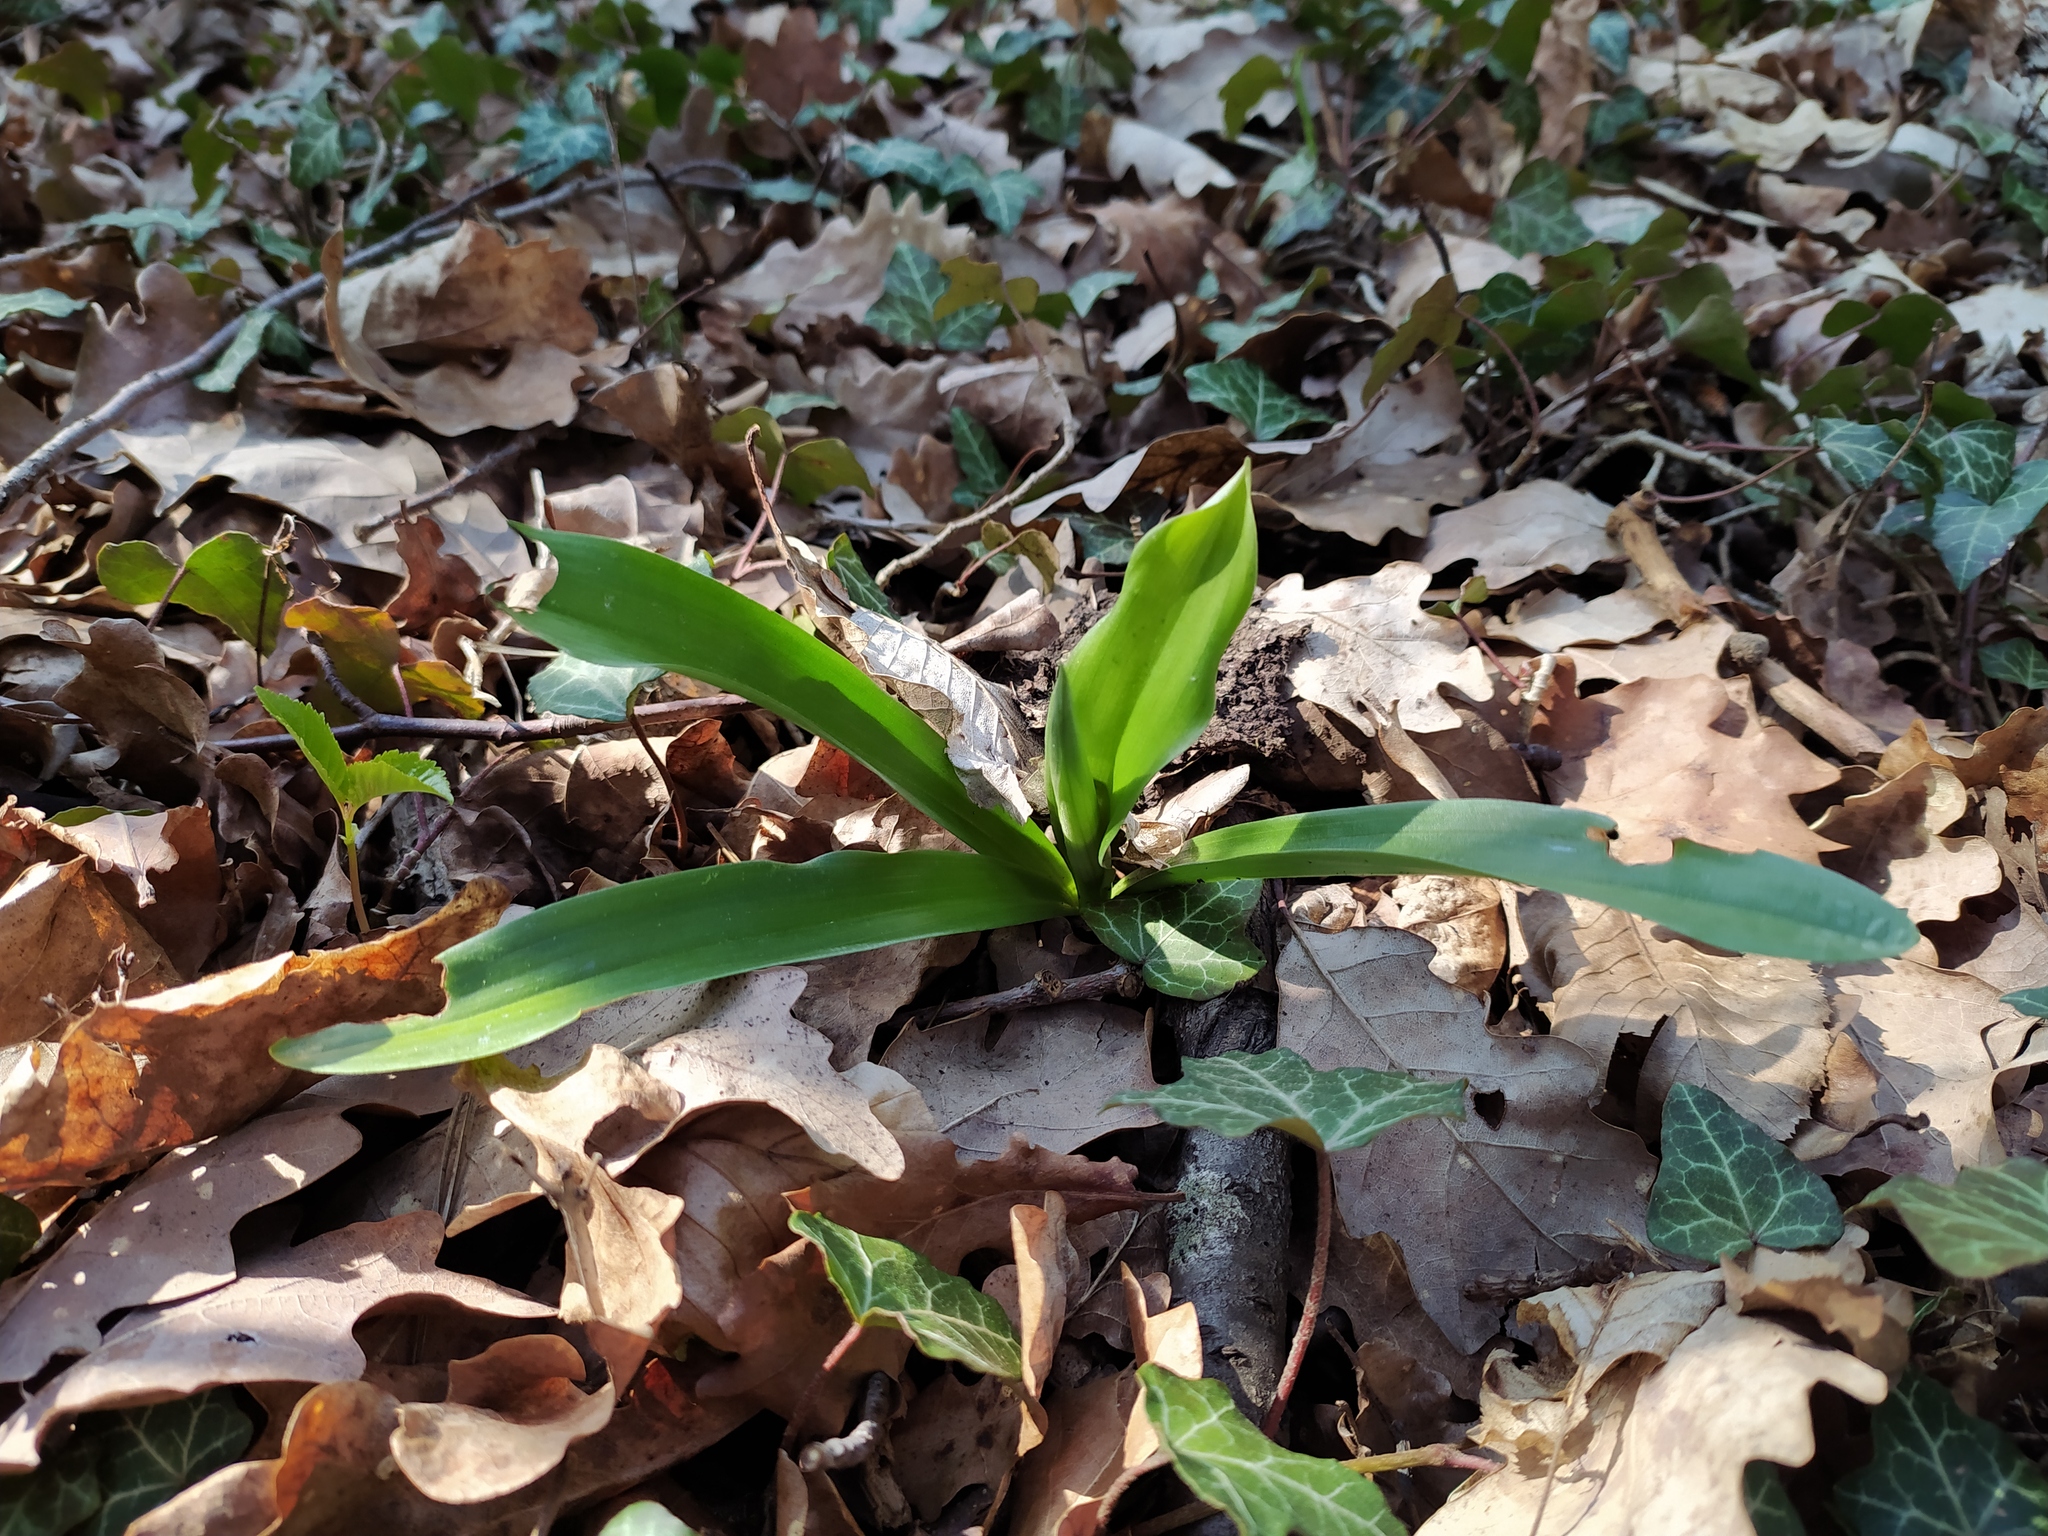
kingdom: Plantae
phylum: Tracheophyta
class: Liliopsida
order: Asparagales
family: Orchidaceae
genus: Orchis
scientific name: Orchis mascula
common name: Early-purple orchid
